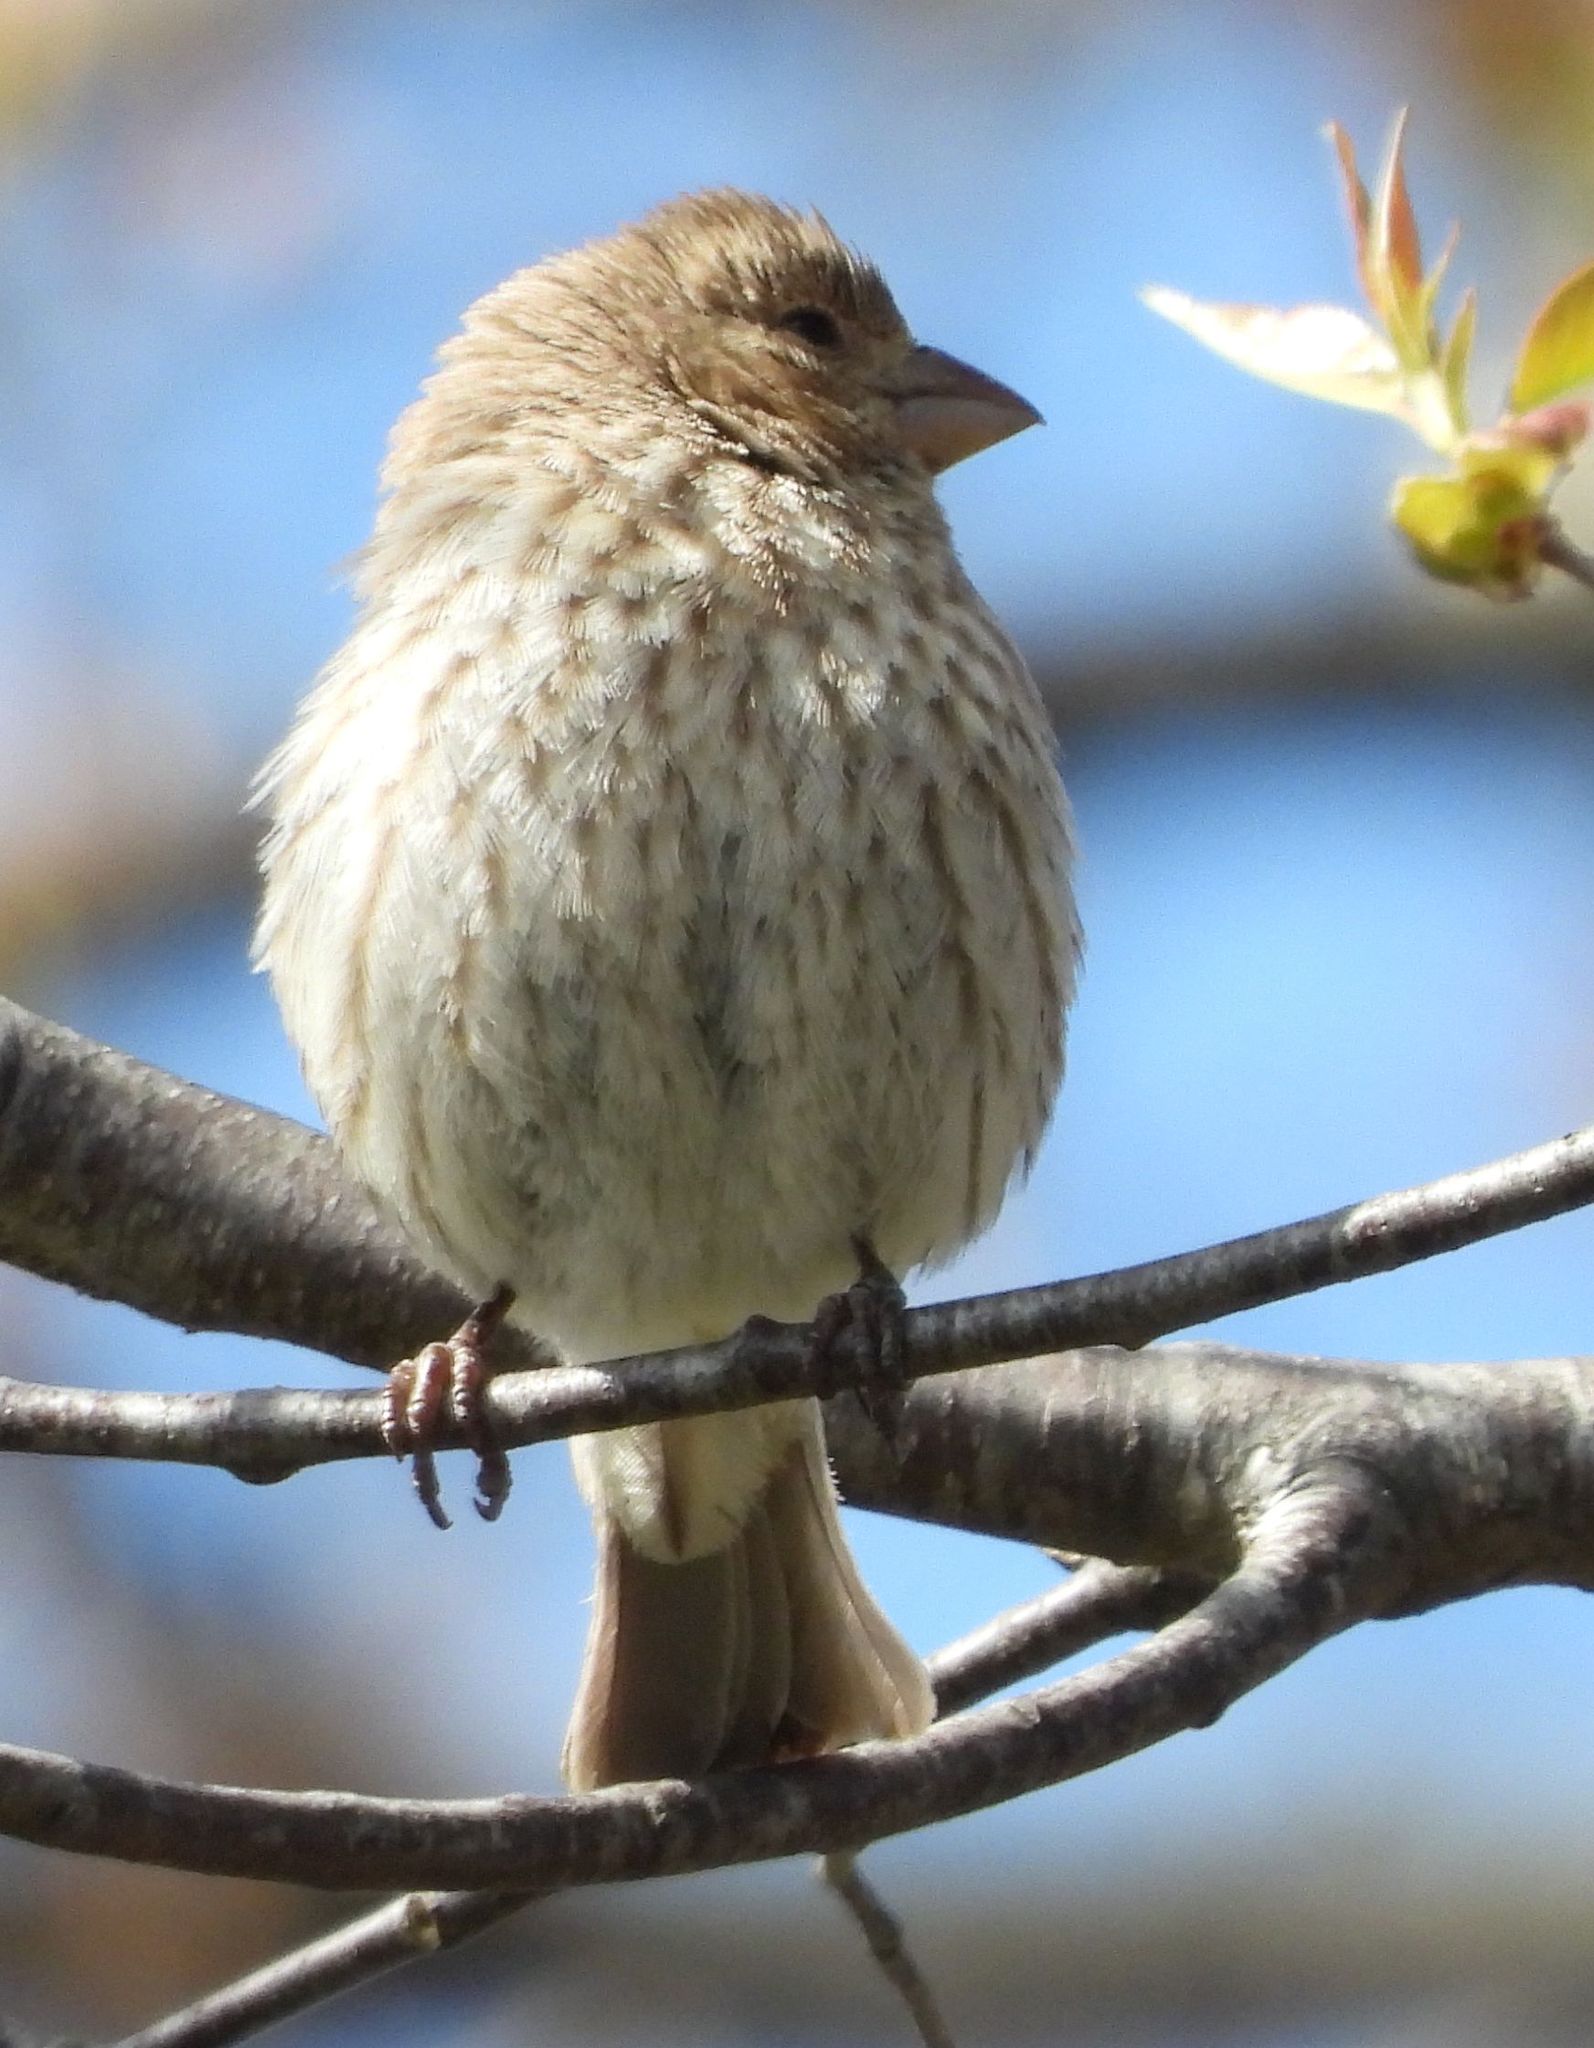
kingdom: Animalia
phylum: Chordata
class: Aves
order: Passeriformes
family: Fringillidae
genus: Haemorhous
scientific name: Haemorhous mexicanus
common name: House finch
